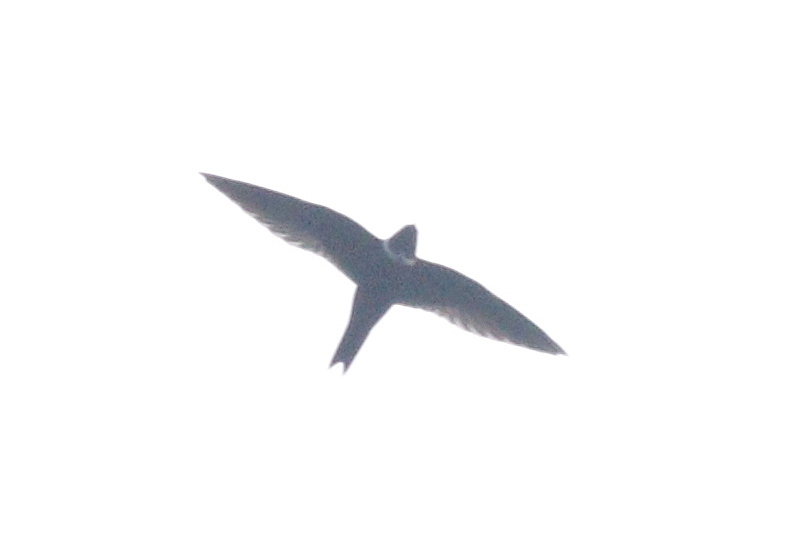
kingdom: Animalia
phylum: Chordata
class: Aves
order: Apodiformes
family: Apodidae
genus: Streptoprocne
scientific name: Streptoprocne zonaris
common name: White-collared swift
